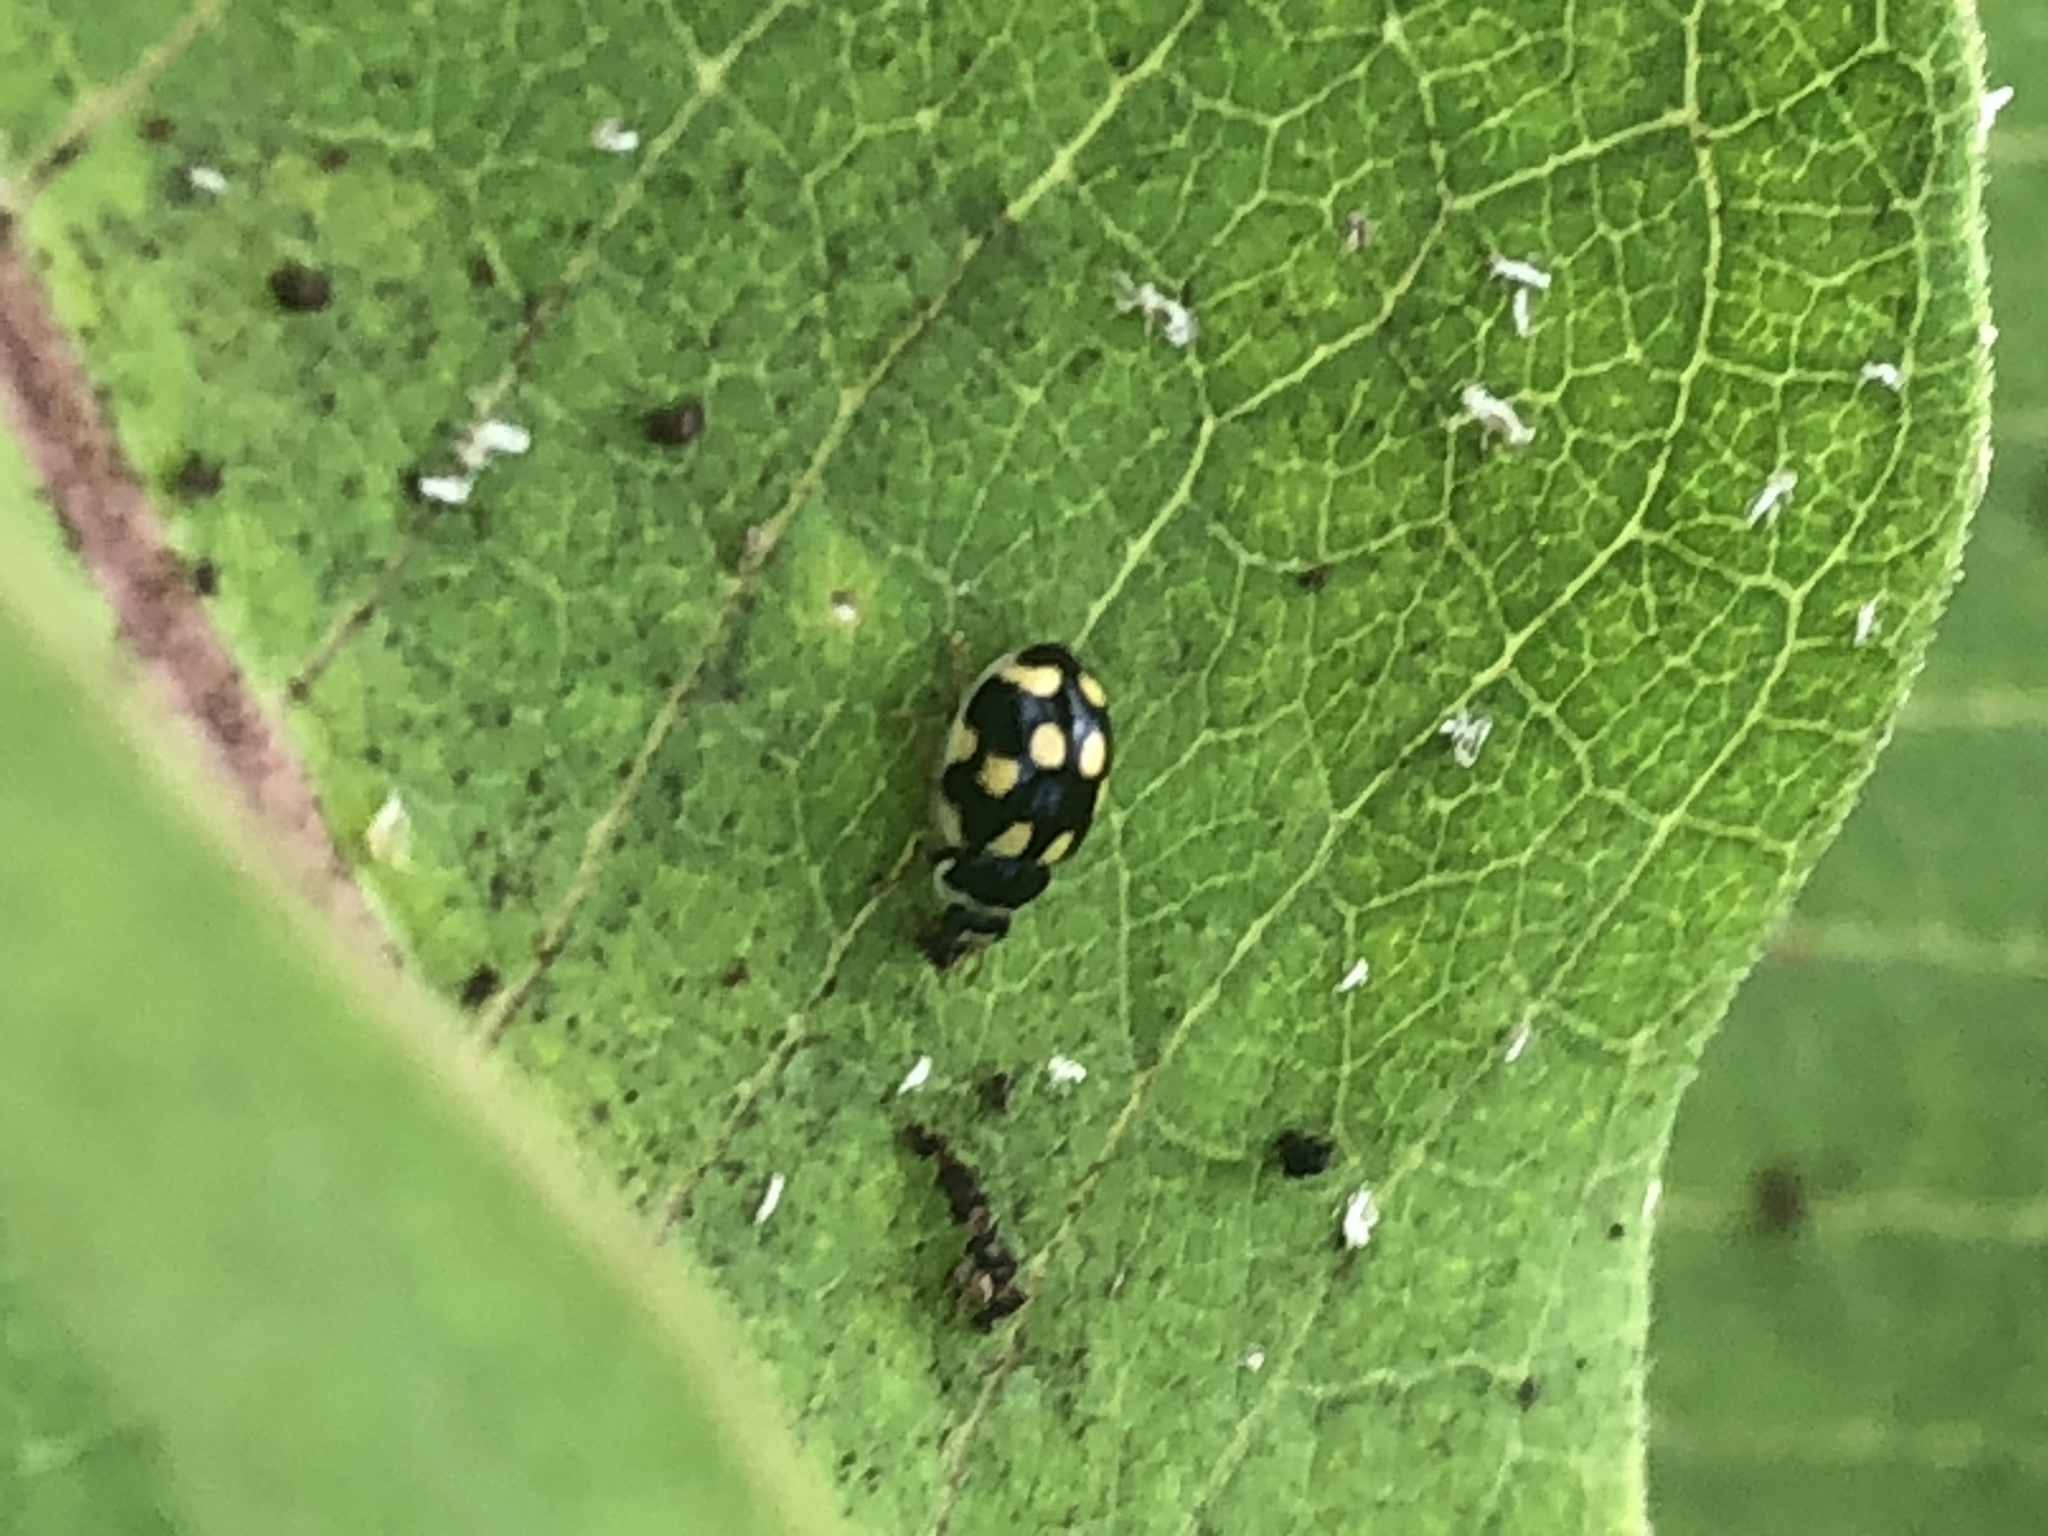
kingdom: Animalia
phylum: Arthropoda
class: Insecta
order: Coleoptera
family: Coccinellidae
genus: Propylaea
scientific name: Propylaea quatuordecimpunctata
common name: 14-spotted ladybird beetle
